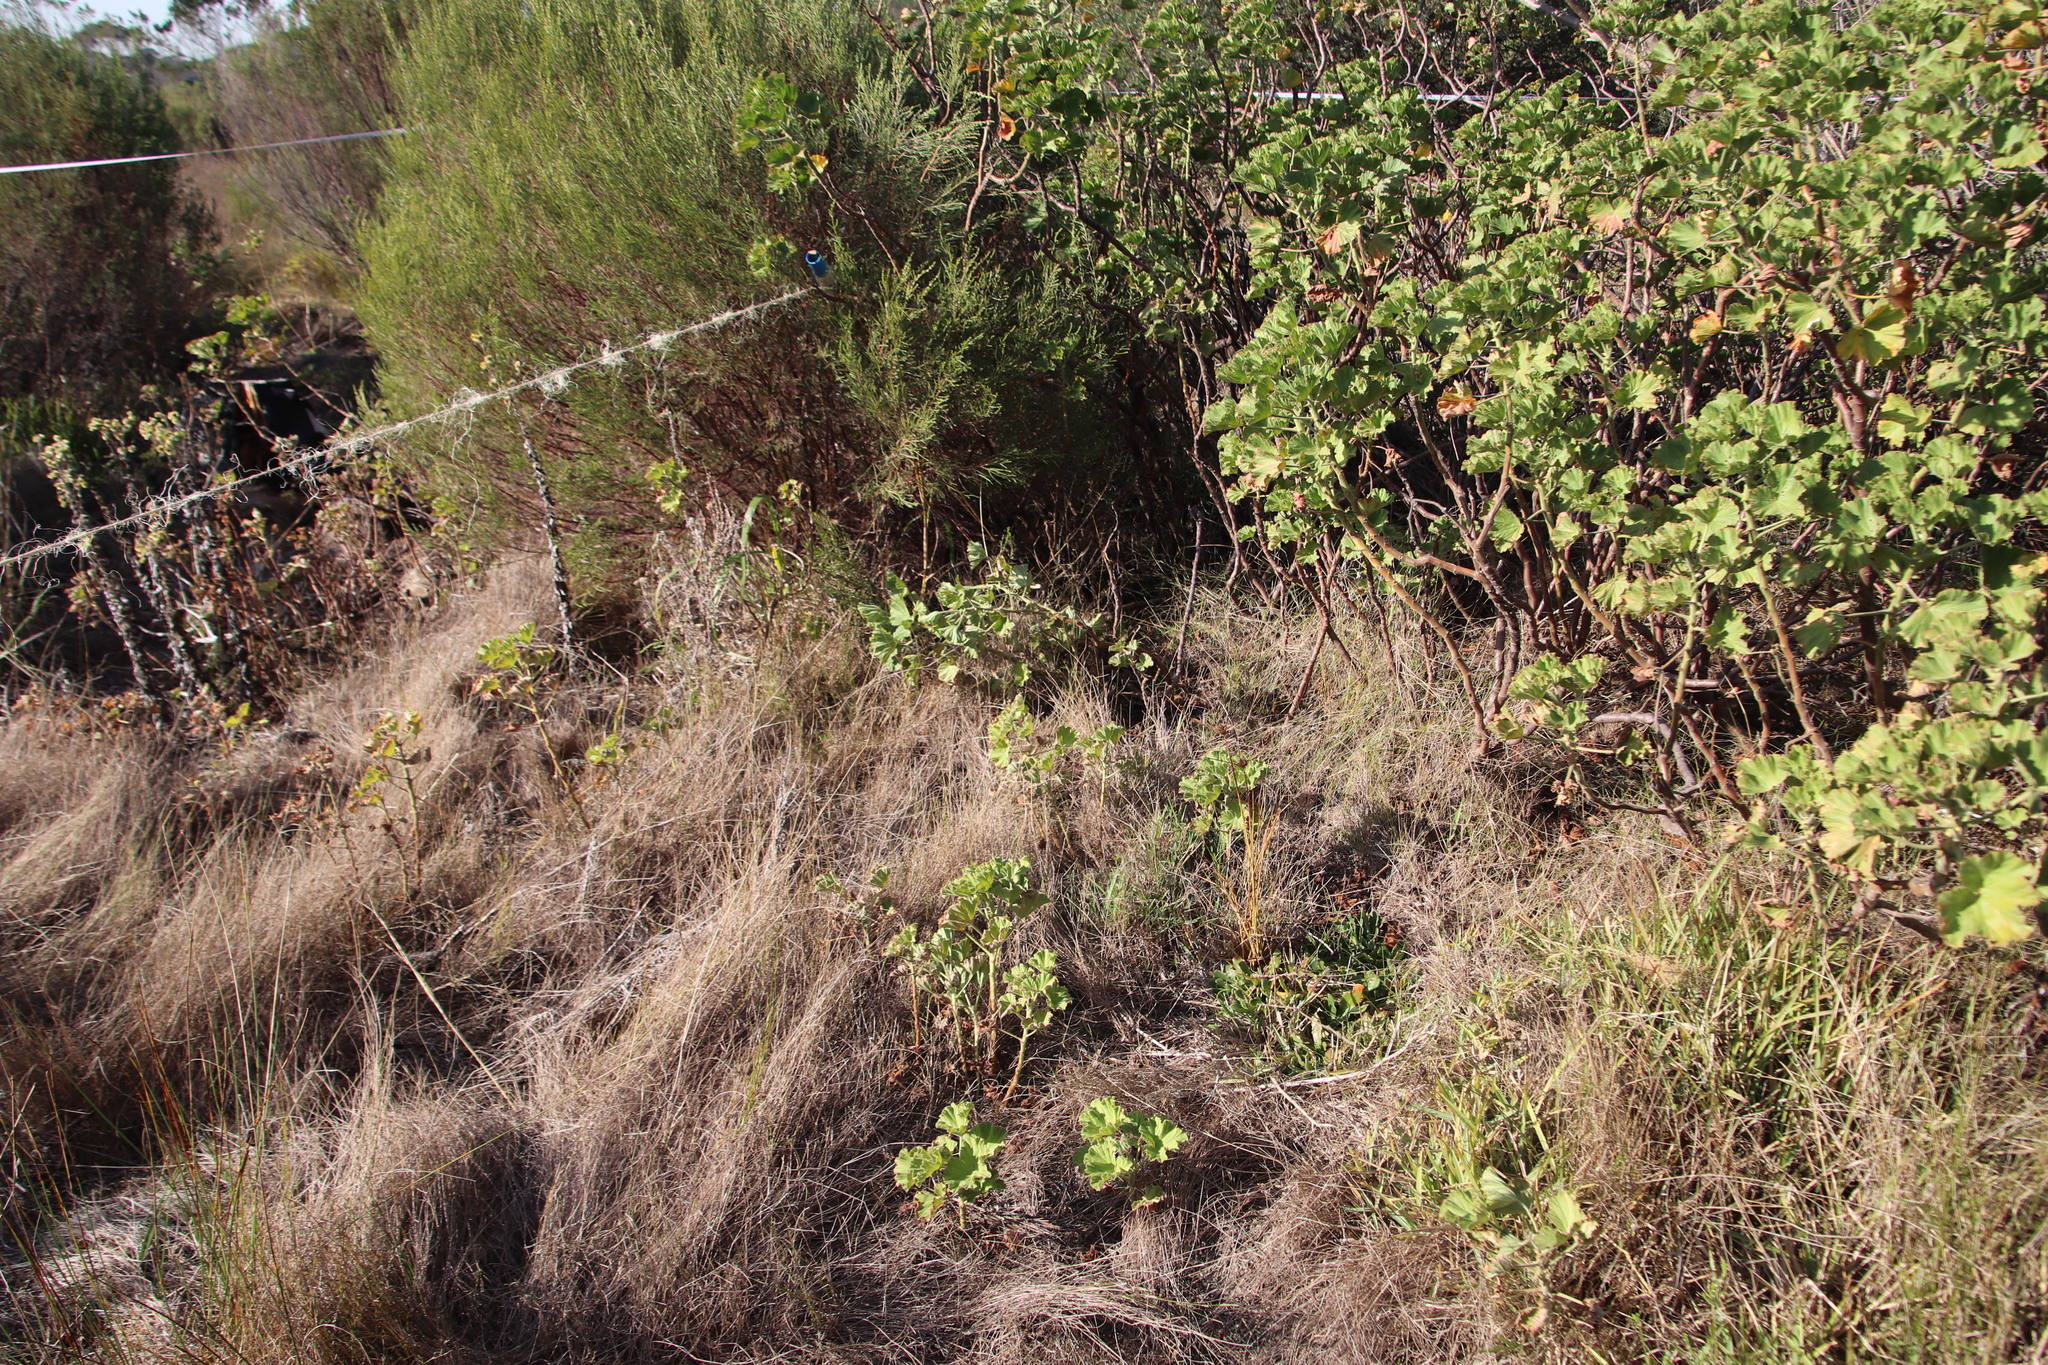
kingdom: Plantae
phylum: Tracheophyta
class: Magnoliopsida
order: Caryophyllales
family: Aizoaceae
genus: Skiatophytum
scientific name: Skiatophytum tripolium
